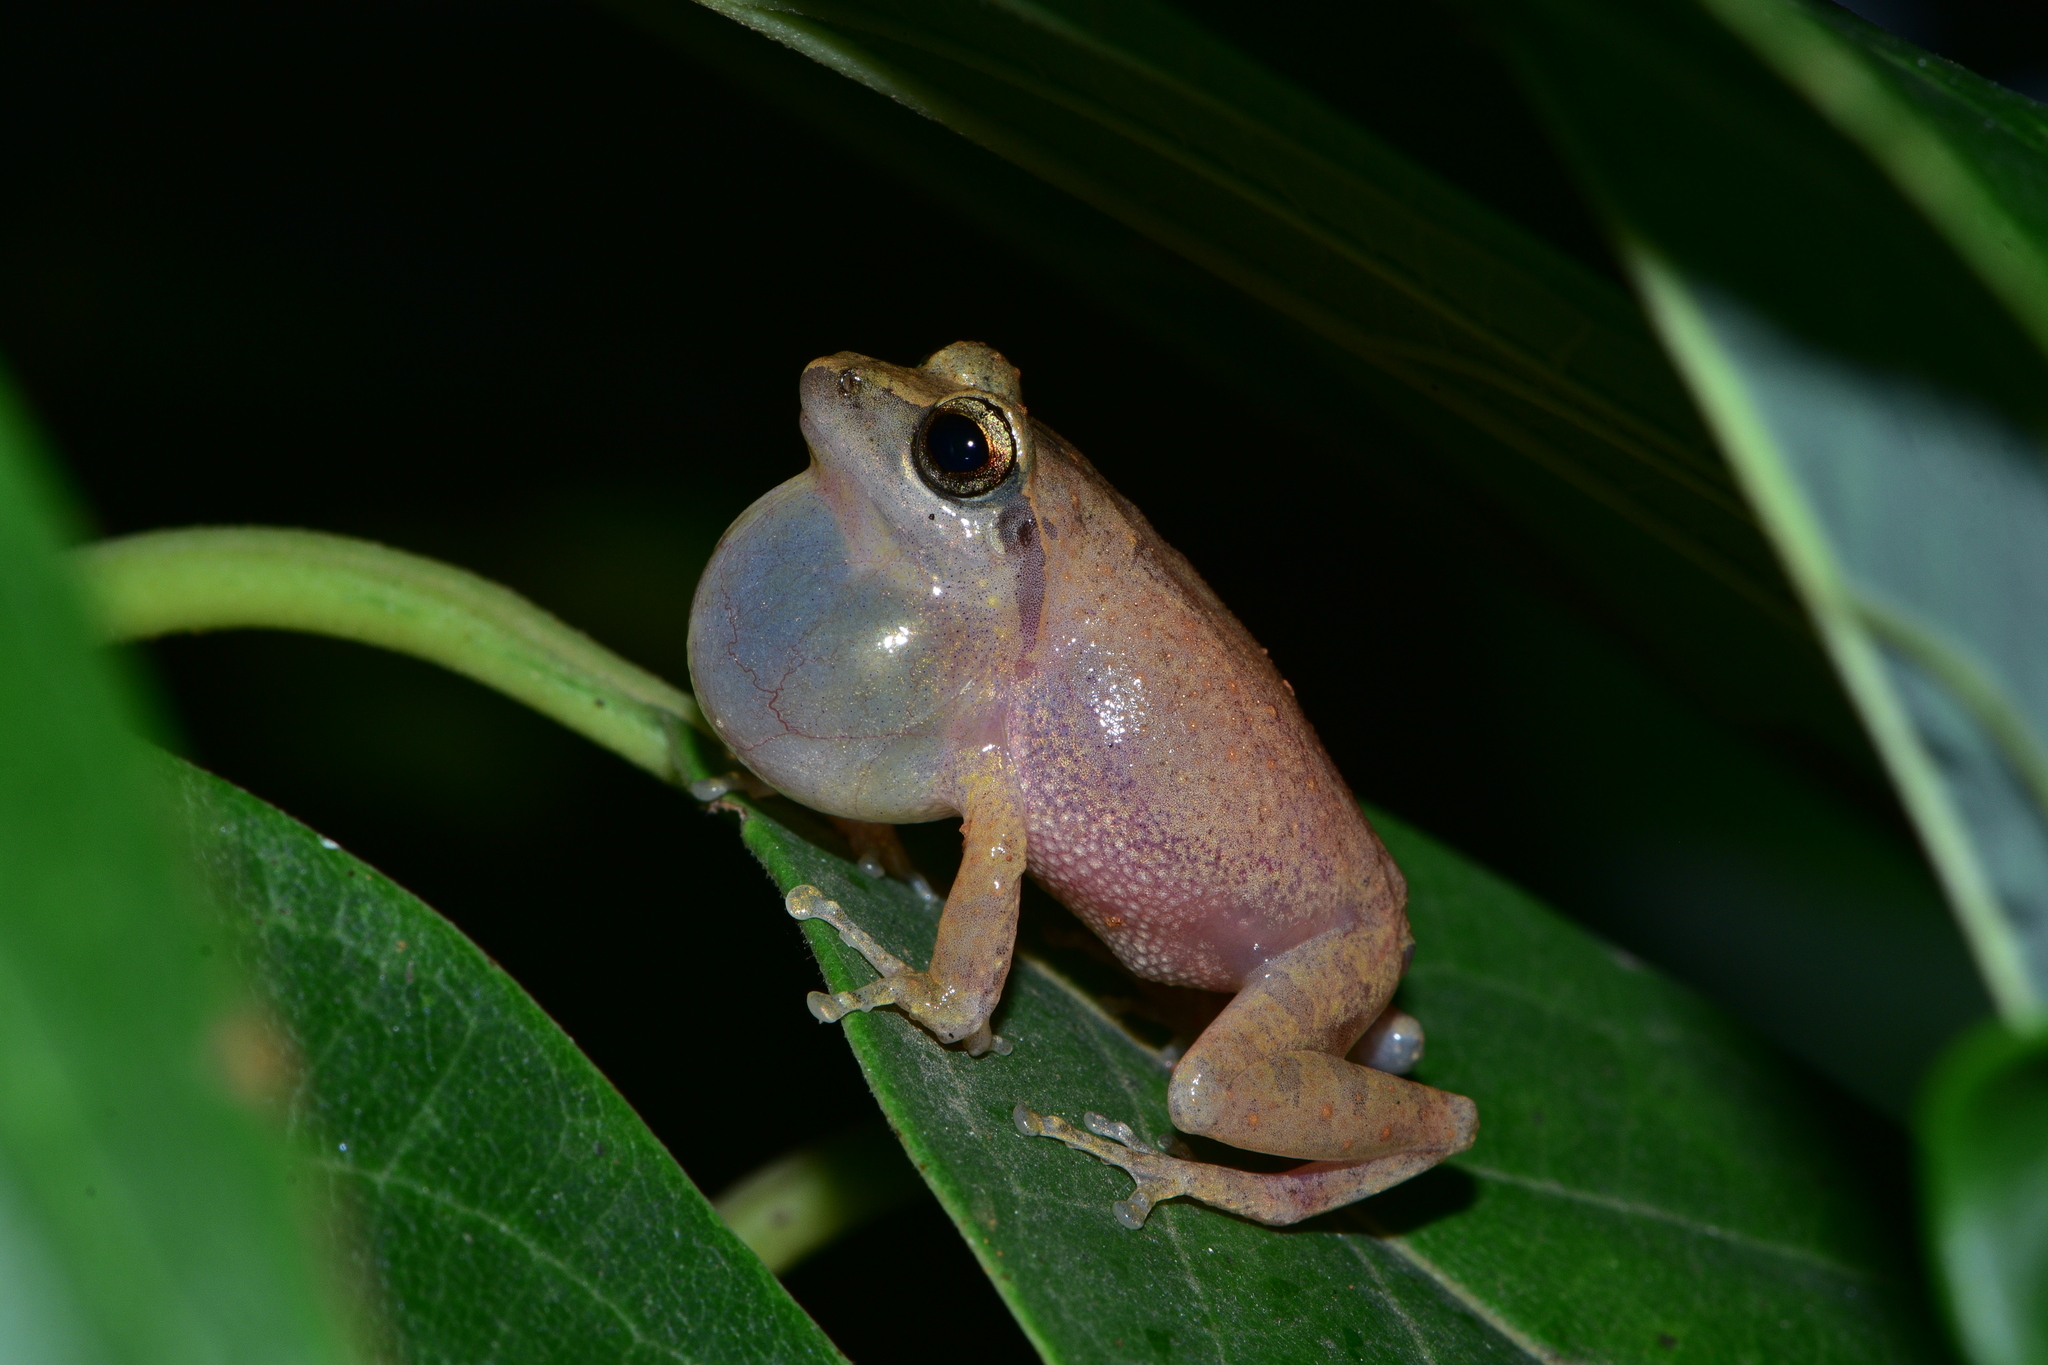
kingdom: Animalia
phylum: Chordata
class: Amphibia
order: Anura
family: Rhacophoridae
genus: Pseudophilautus
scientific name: Pseudophilautus wynaadensis
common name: Dark-eared bush frog
